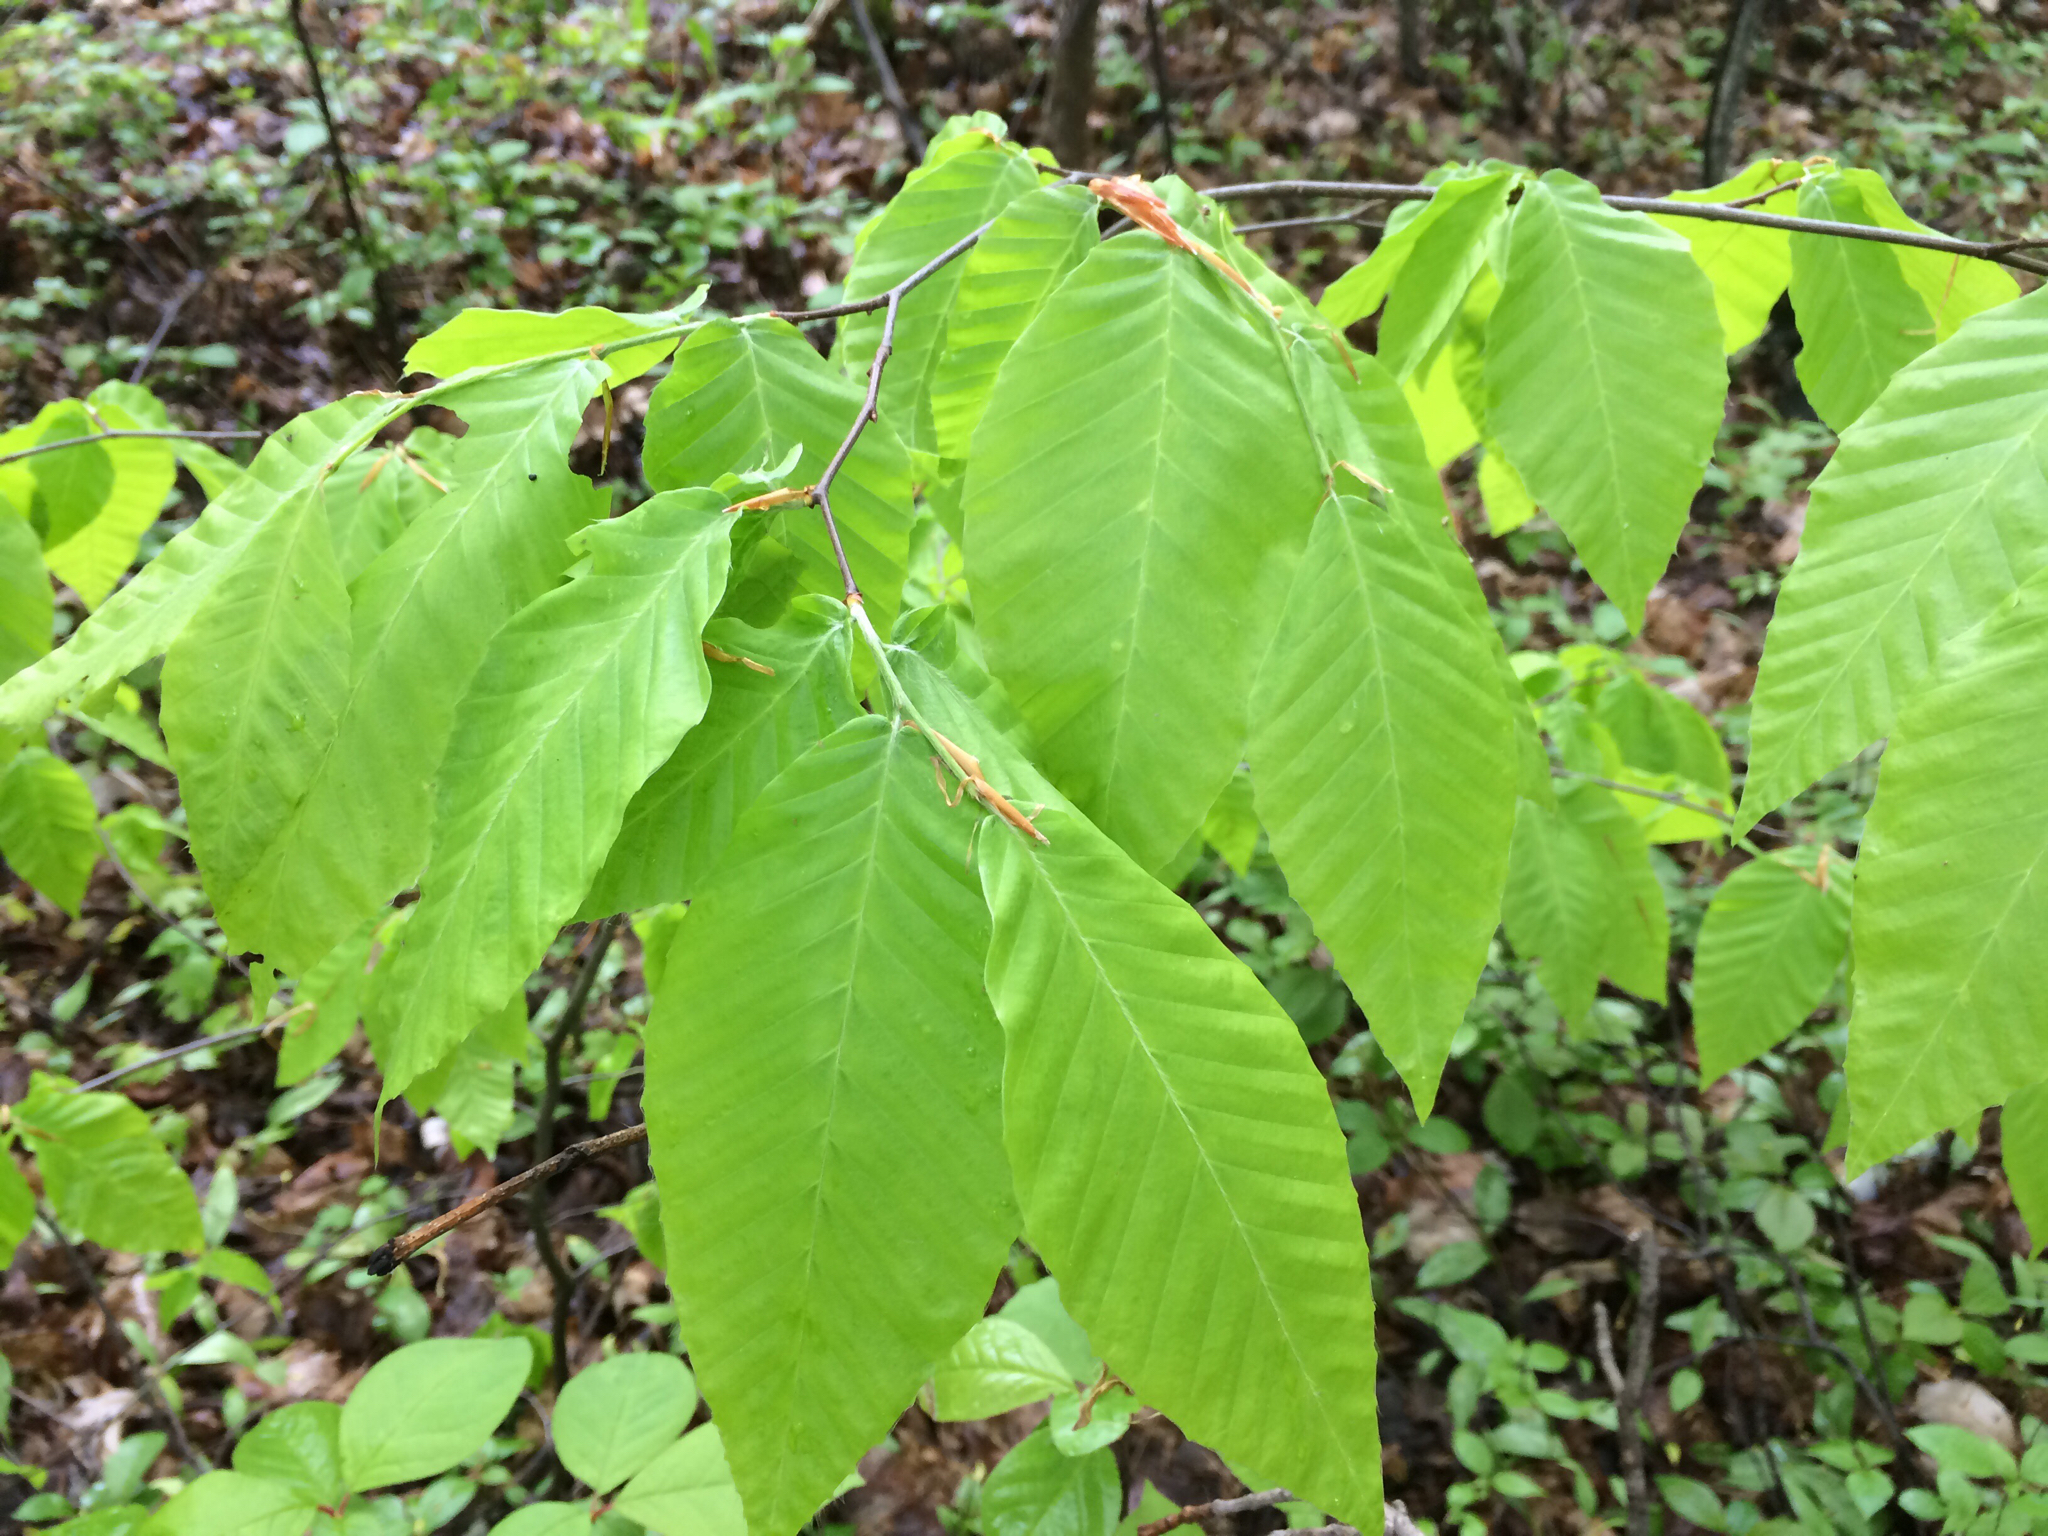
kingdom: Plantae
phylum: Tracheophyta
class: Magnoliopsida
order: Fagales
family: Fagaceae
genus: Fagus
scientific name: Fagus grandifolia
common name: American beech
